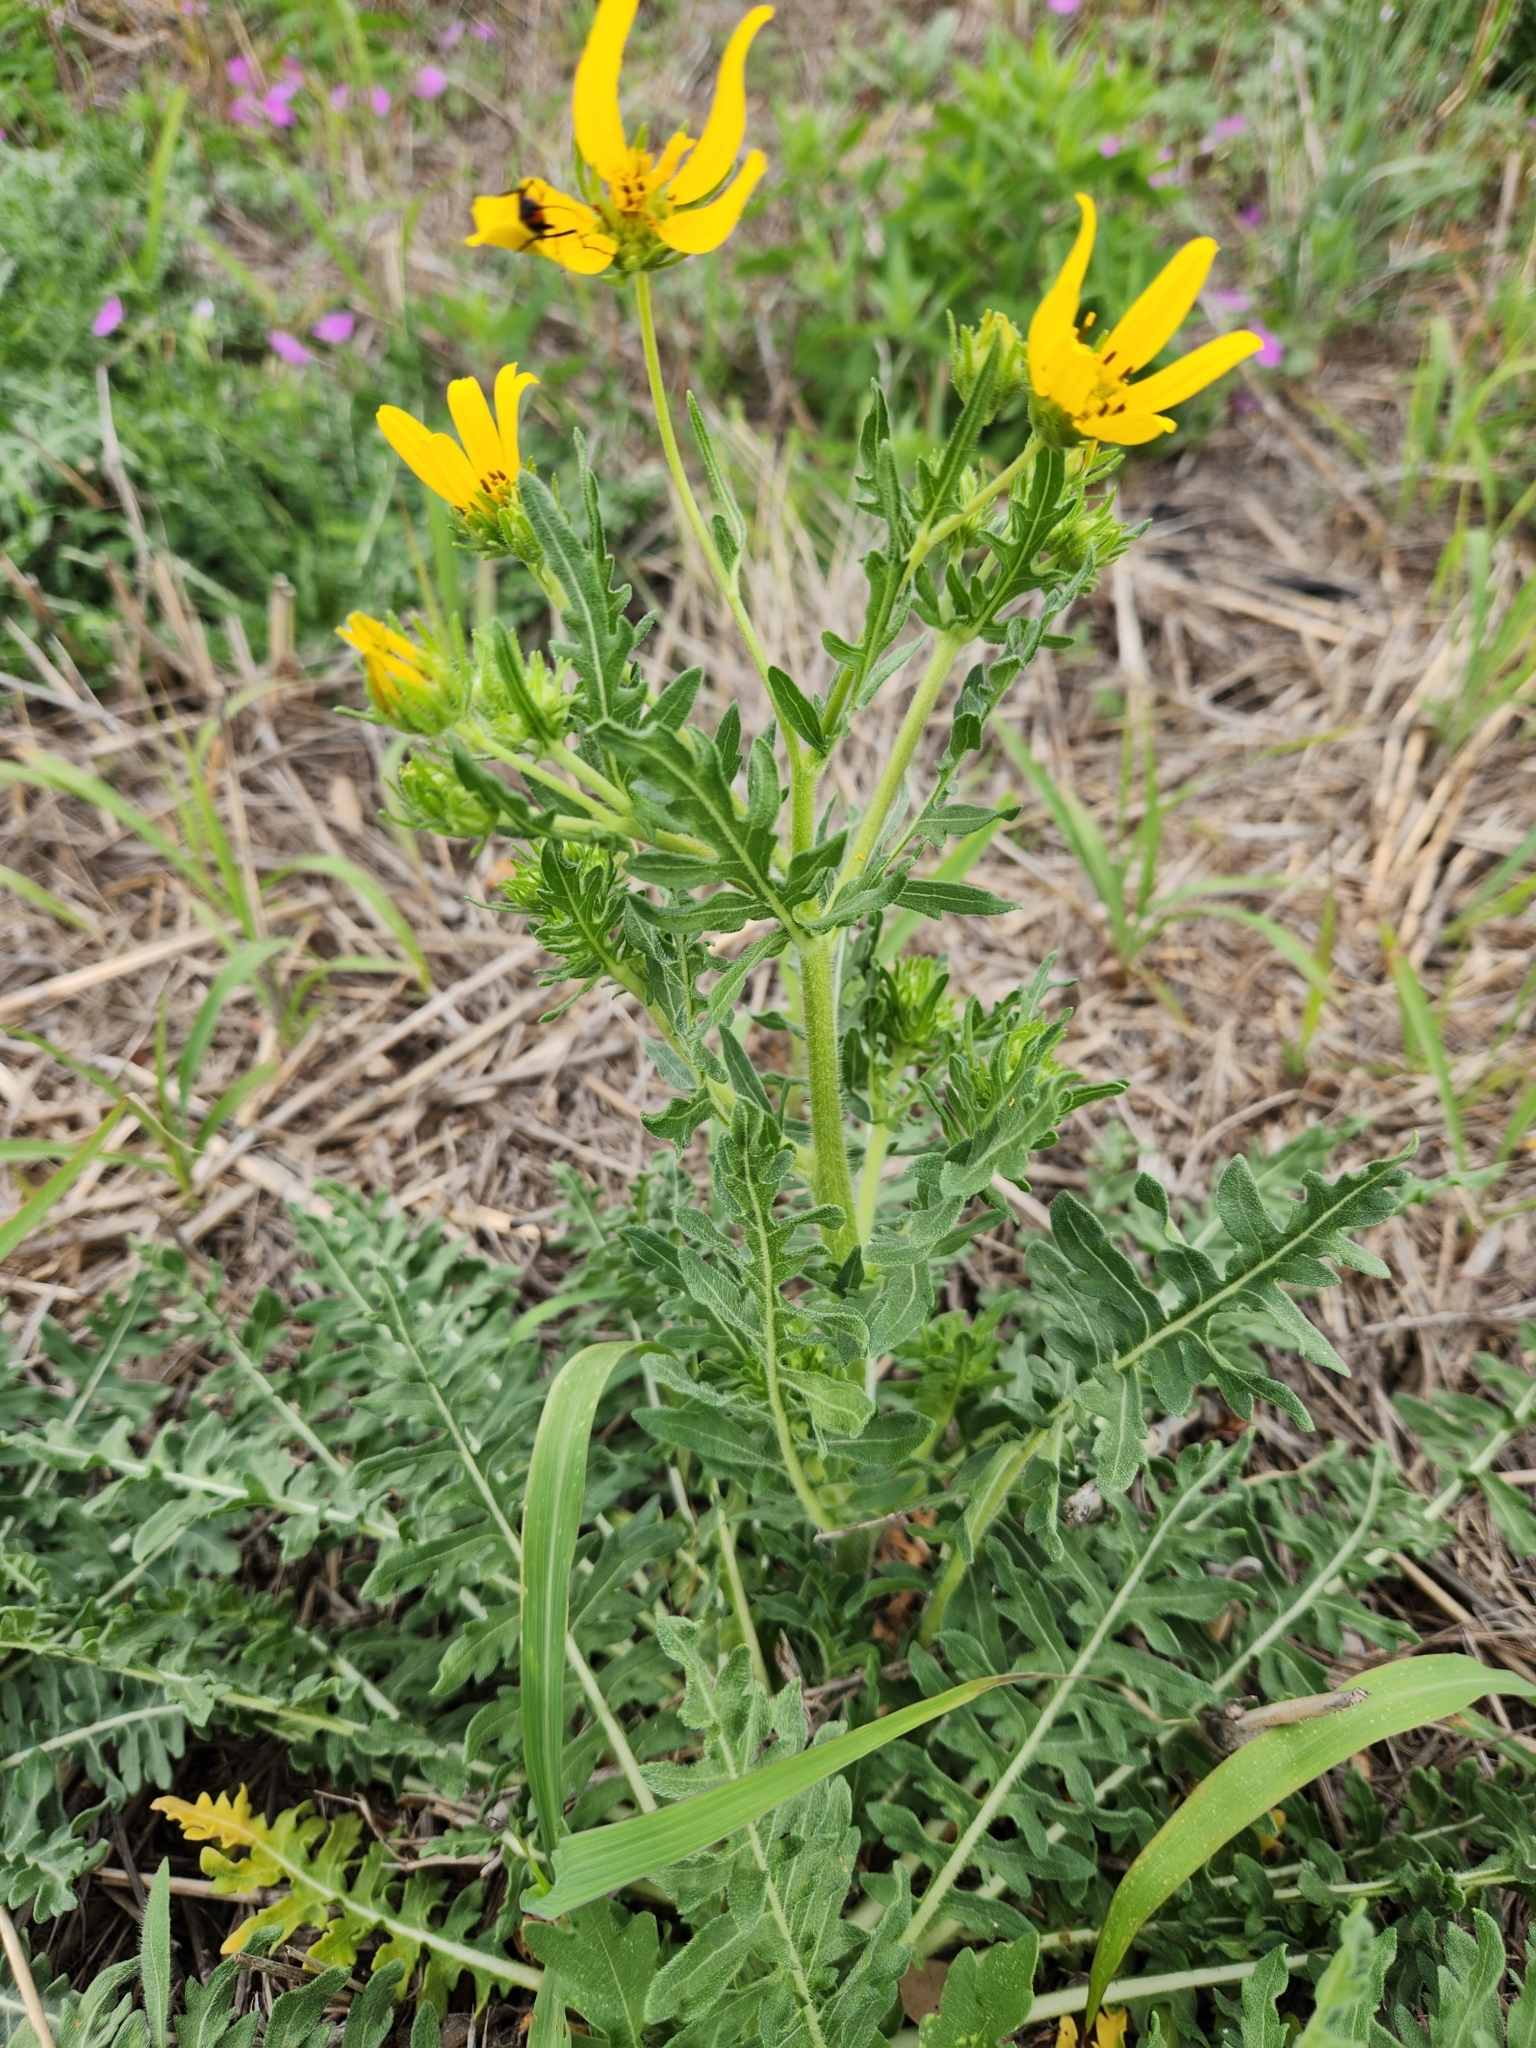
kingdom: Plantae
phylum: Tracheophyta
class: Magnoliopsida
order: Asterales
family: Asteraceae
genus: Engelmannia
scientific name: Engelmannia peristenia
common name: Engelmann's daisy
